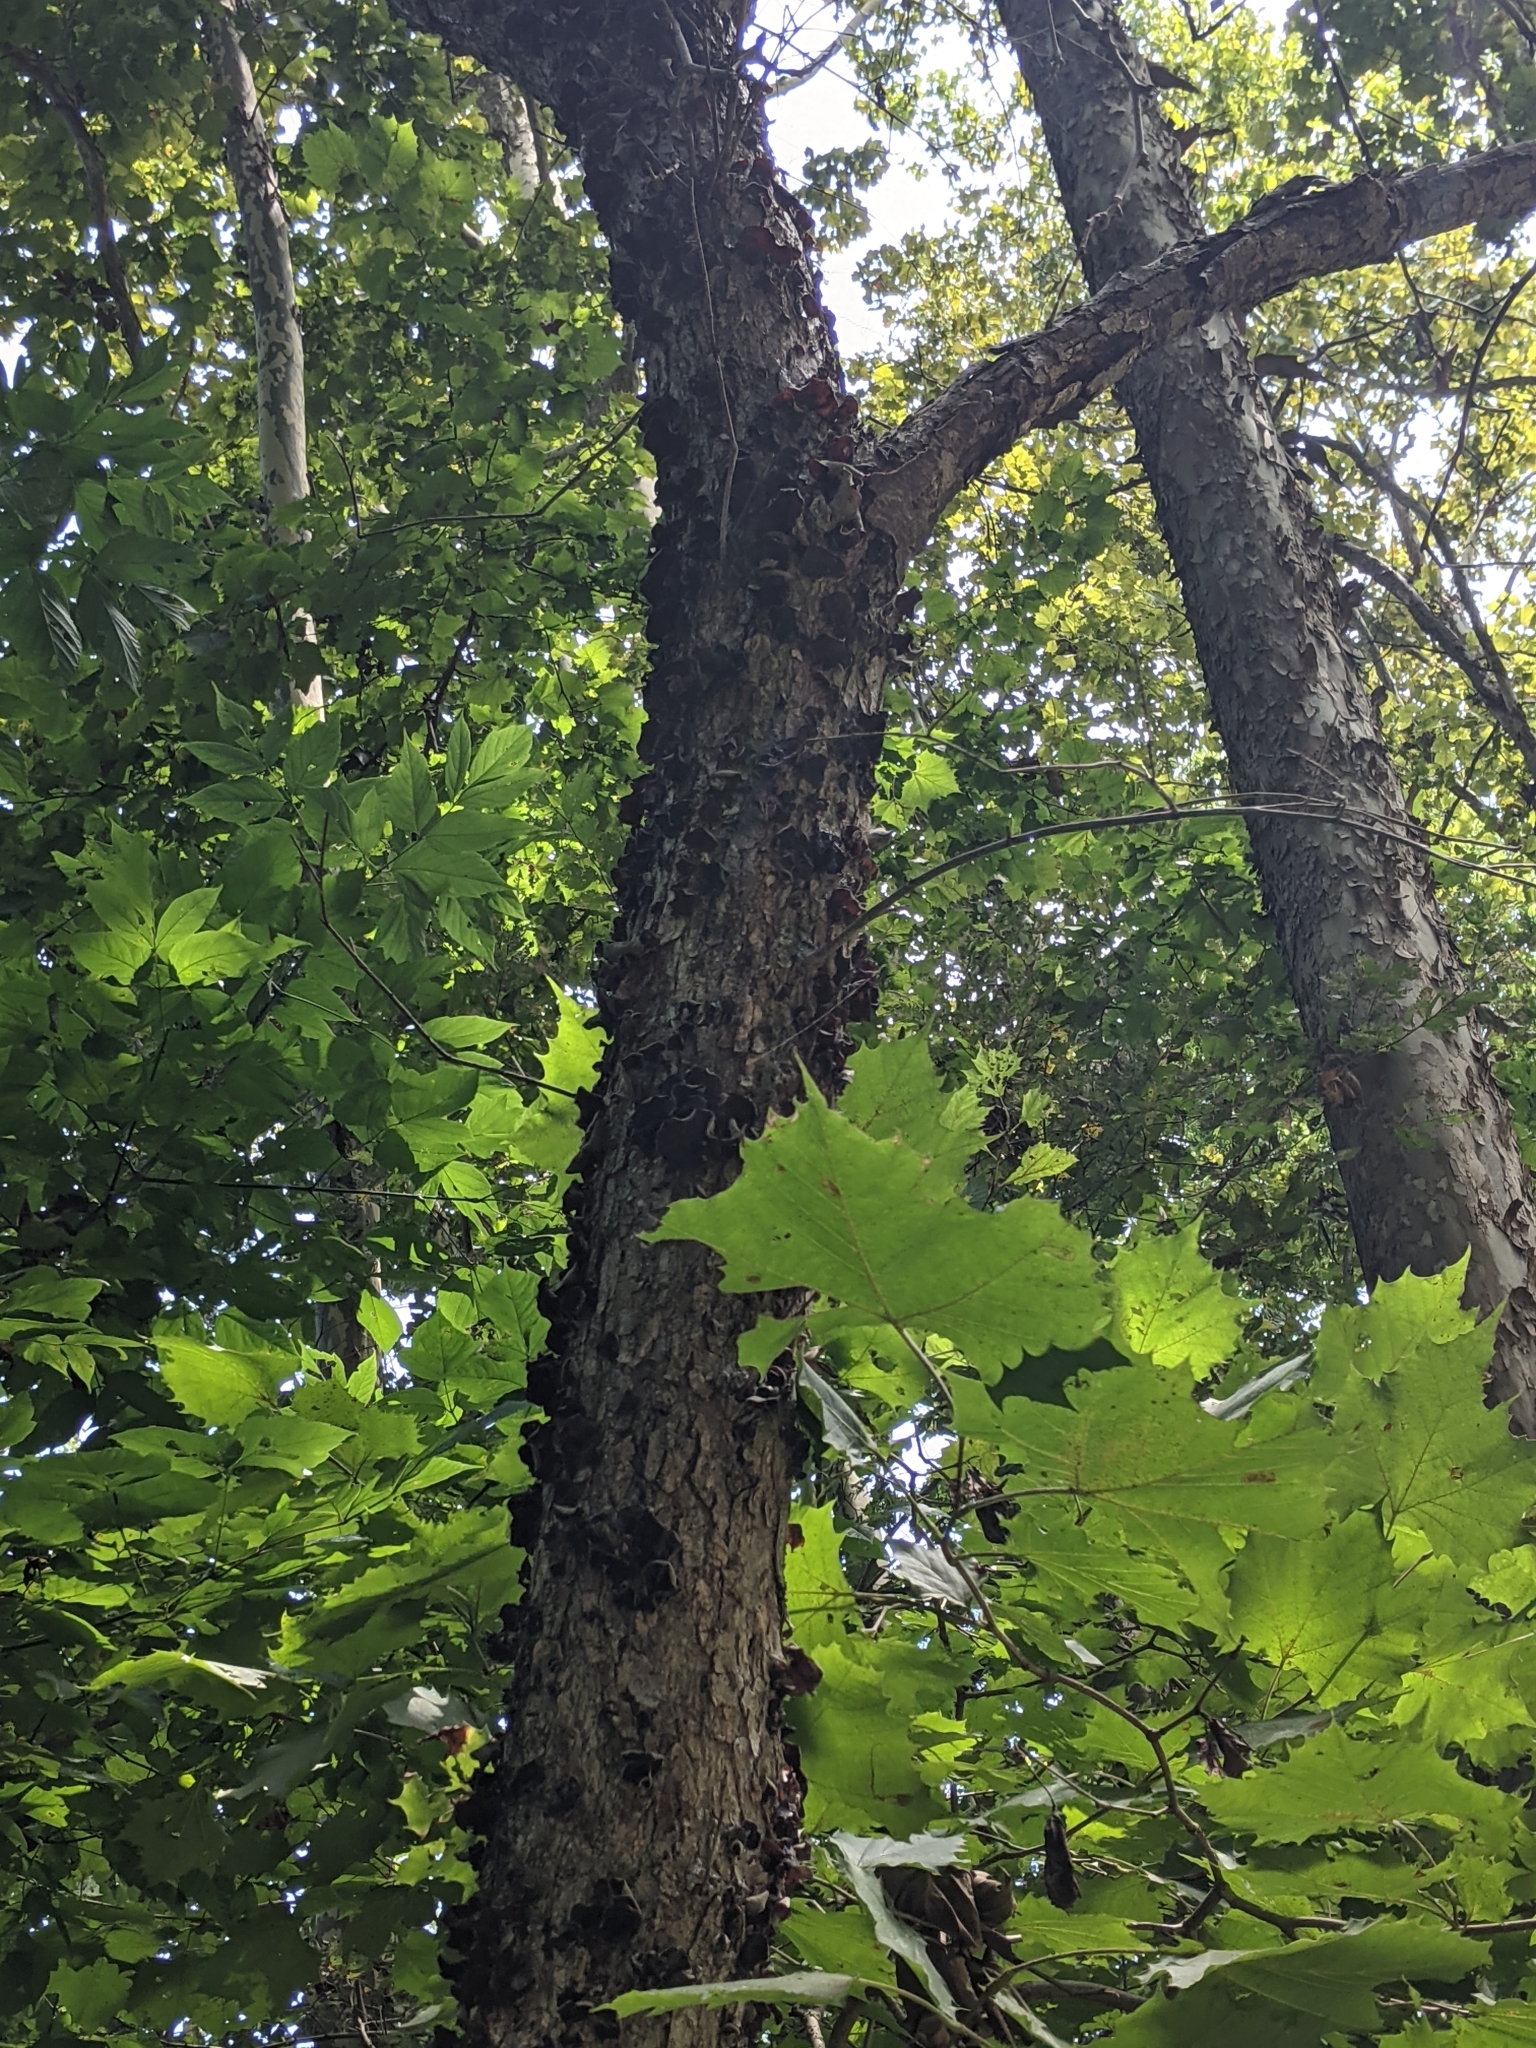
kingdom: Fungi
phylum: Basidiomycota
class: Agaricomycetes
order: Auriculariales
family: Auriculariaceae
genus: Auricularia
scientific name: Auricularia nigricans
